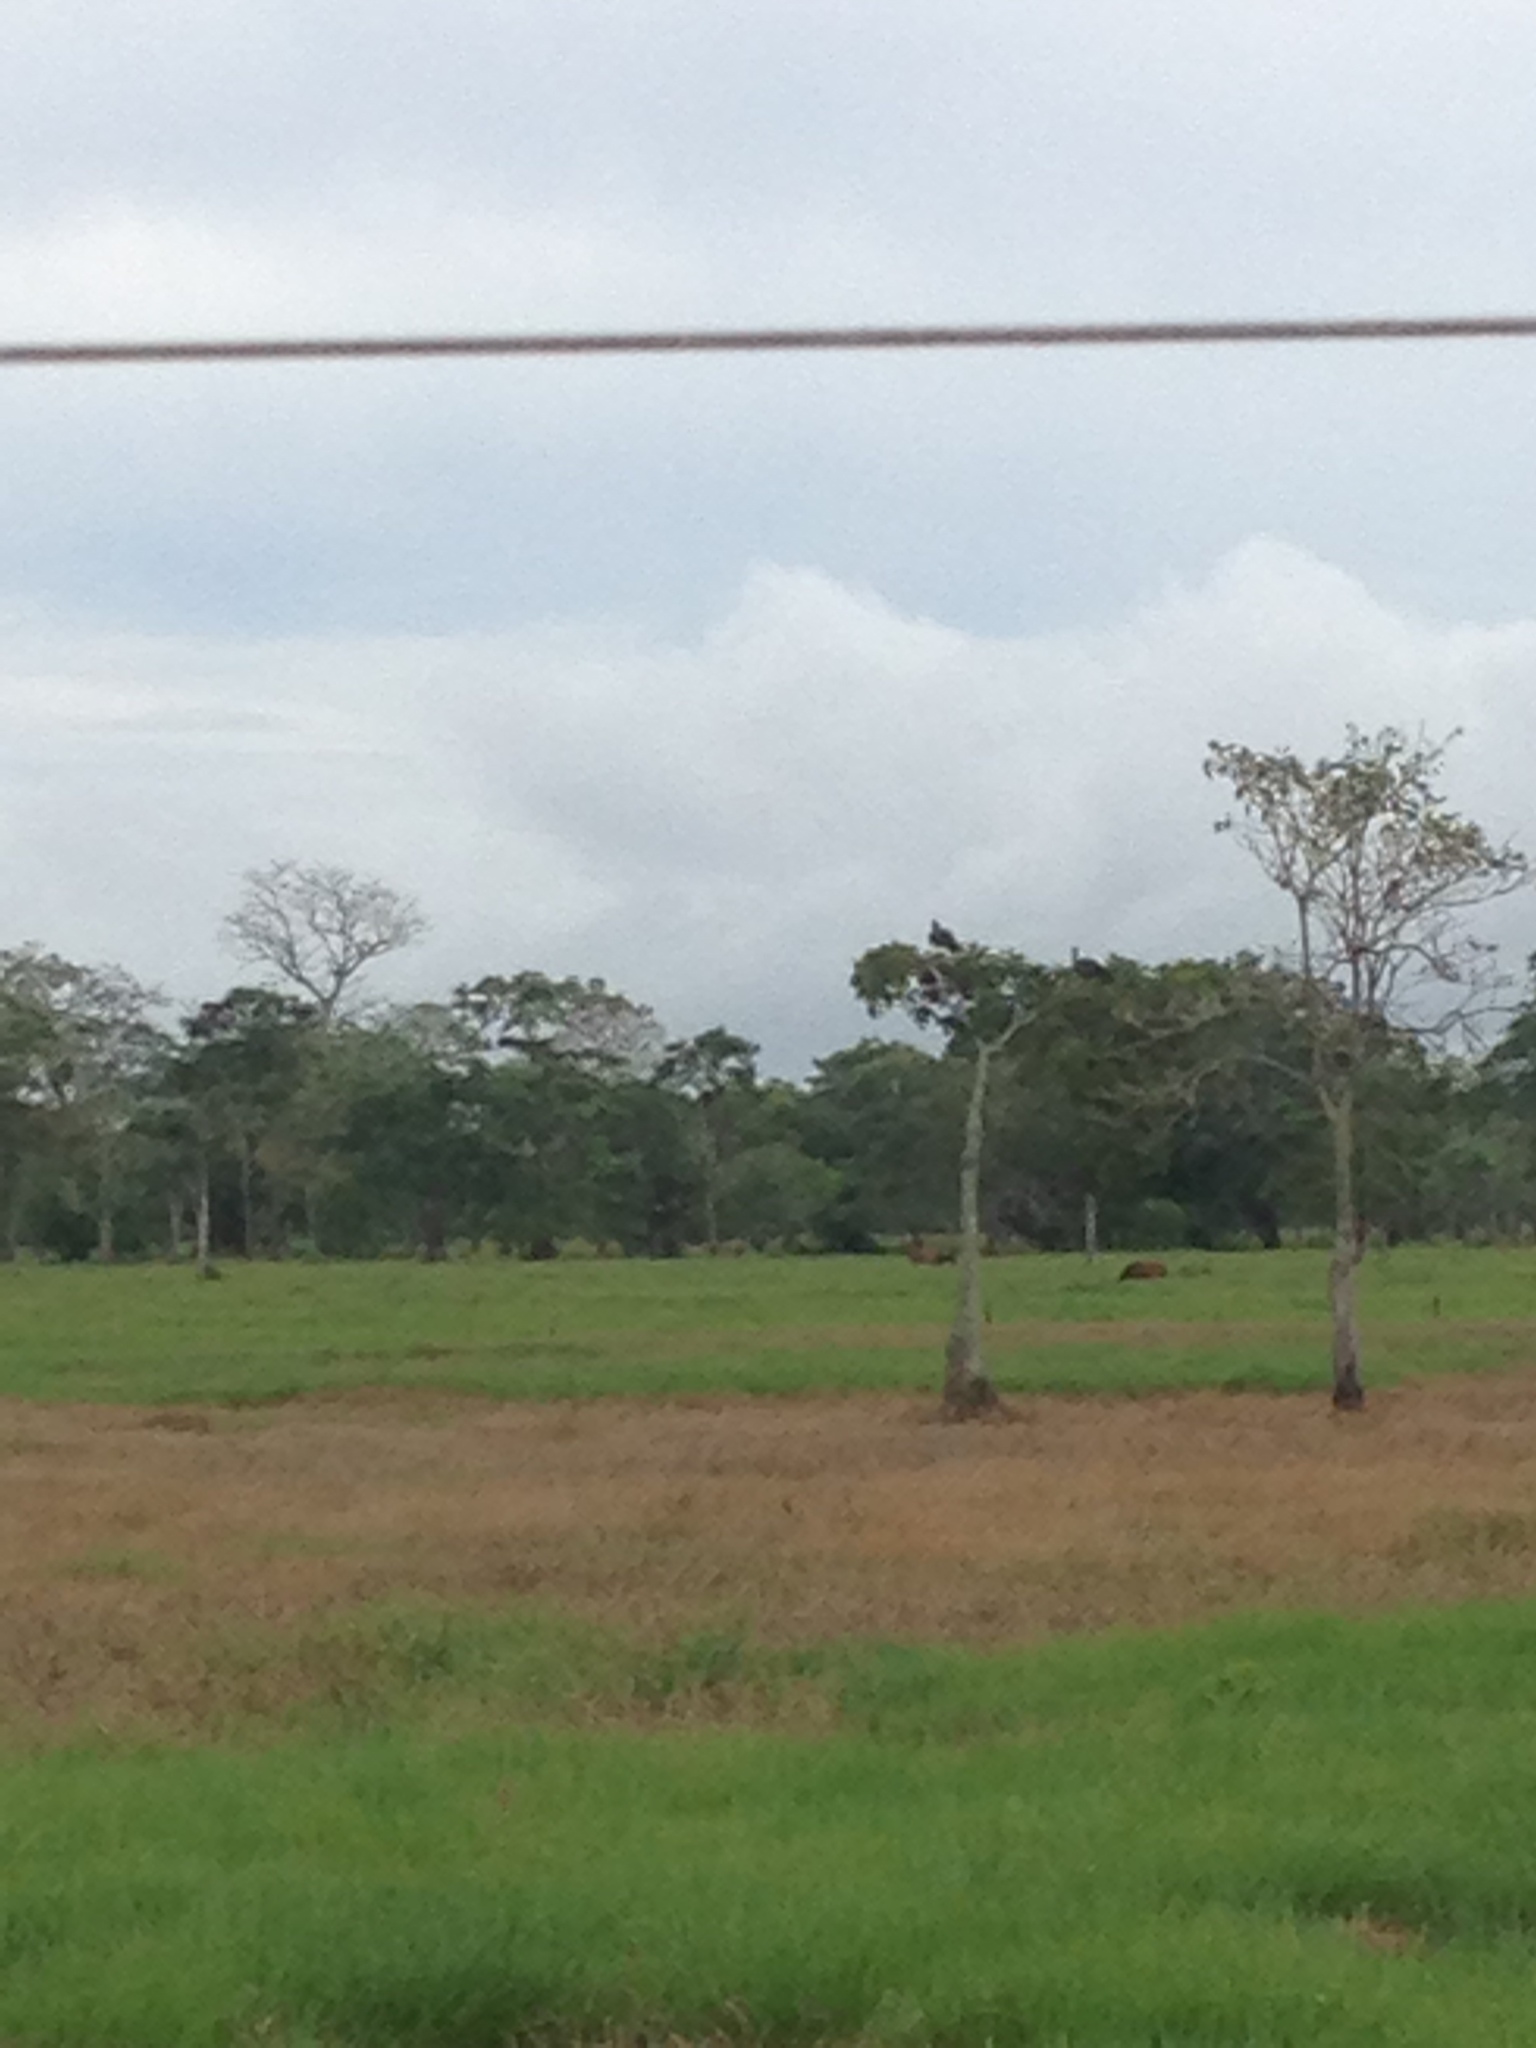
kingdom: Animalia
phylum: Chordata
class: Aves
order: Anseriformes
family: Anhimidae
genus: Chauna
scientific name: Chauna chavaria
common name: Northern screamer
